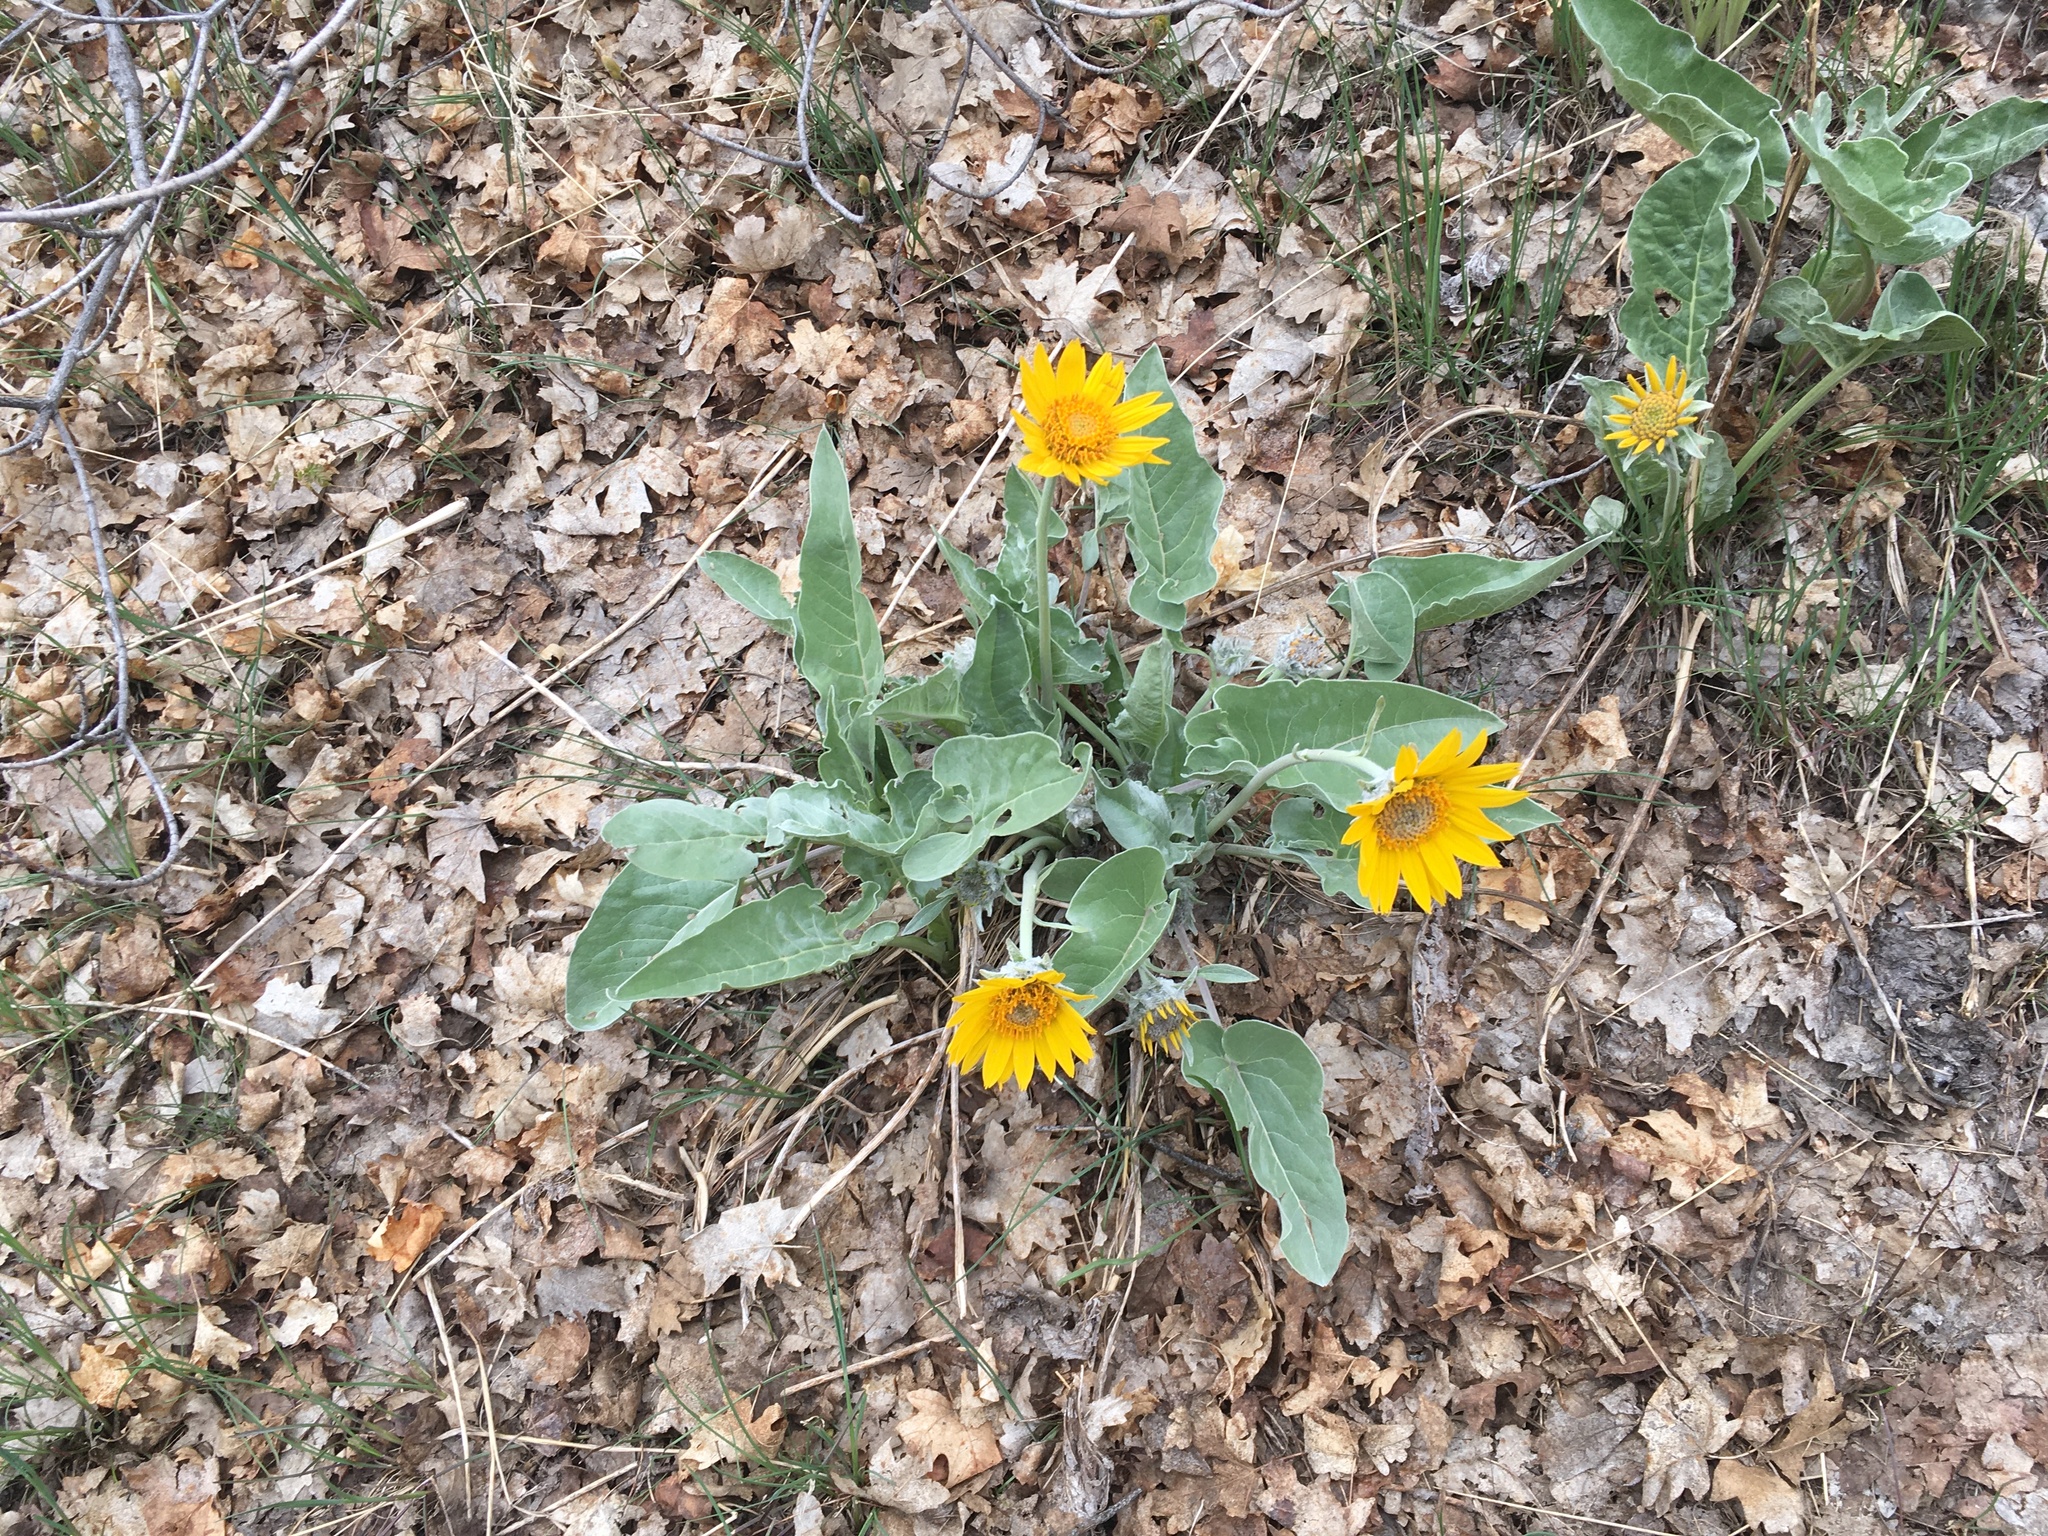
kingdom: Plantae
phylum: Tracheophyta
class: Magnoliopsida
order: Asterales
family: Asteraceae
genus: Wyethia
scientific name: Wyethia sagittata
